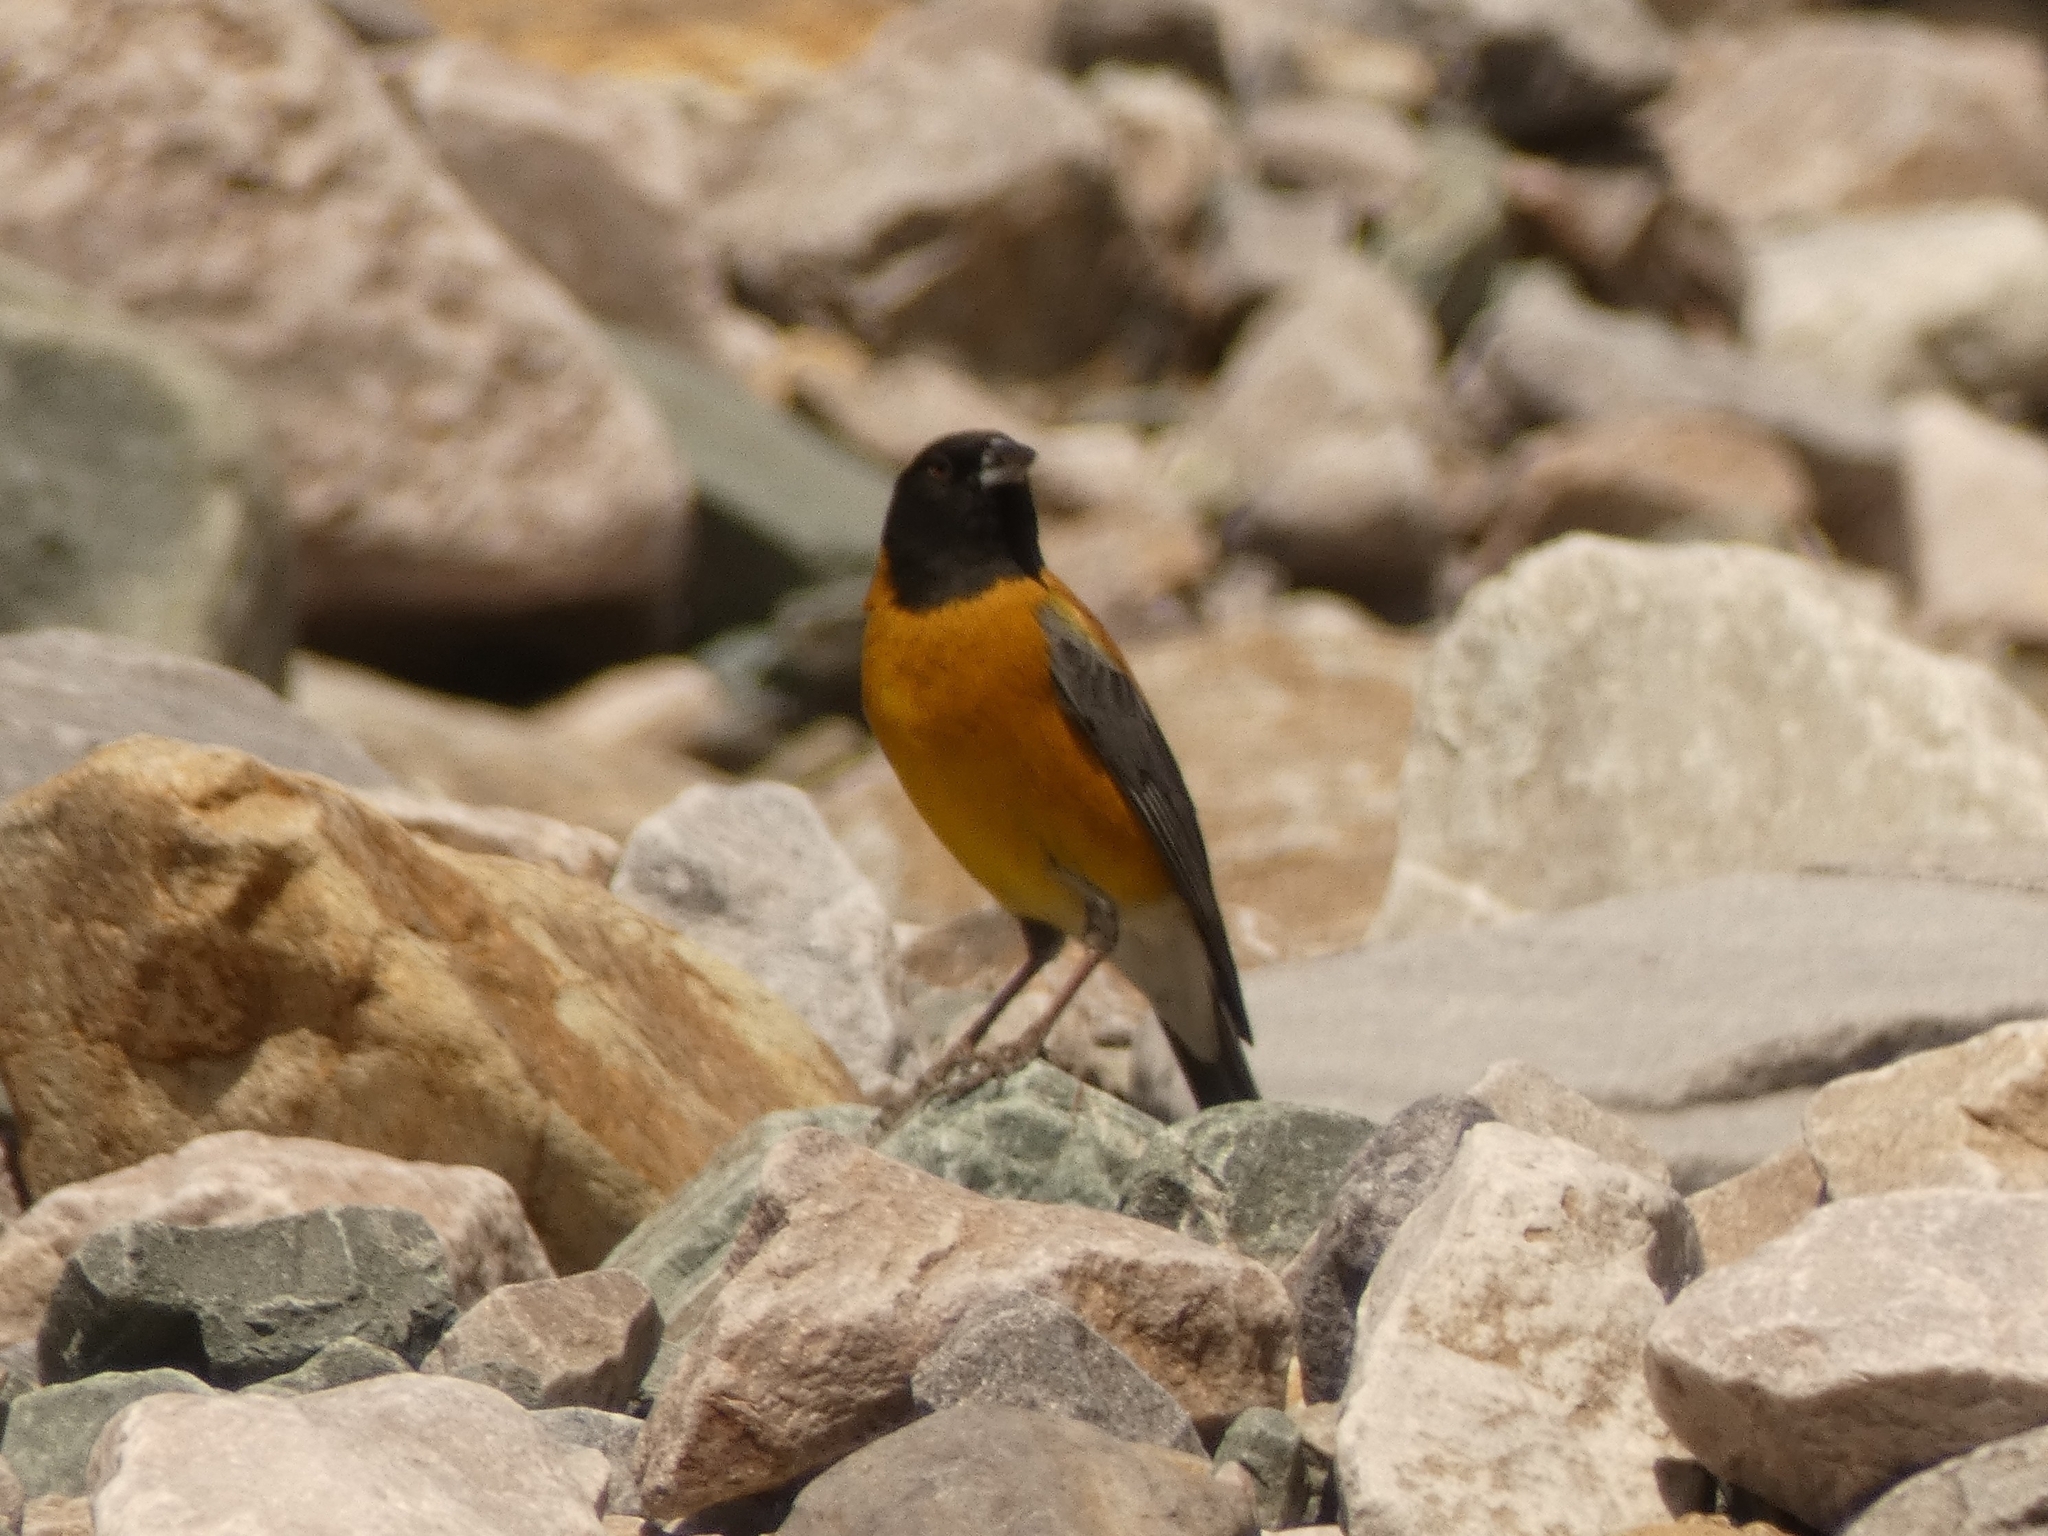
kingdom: Animalia
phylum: Chordata
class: Aves
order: Passeriformes
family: Thraupidae
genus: Phrygilus
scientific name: Phrygilus atriceps
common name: Black-hooded sierra finch
